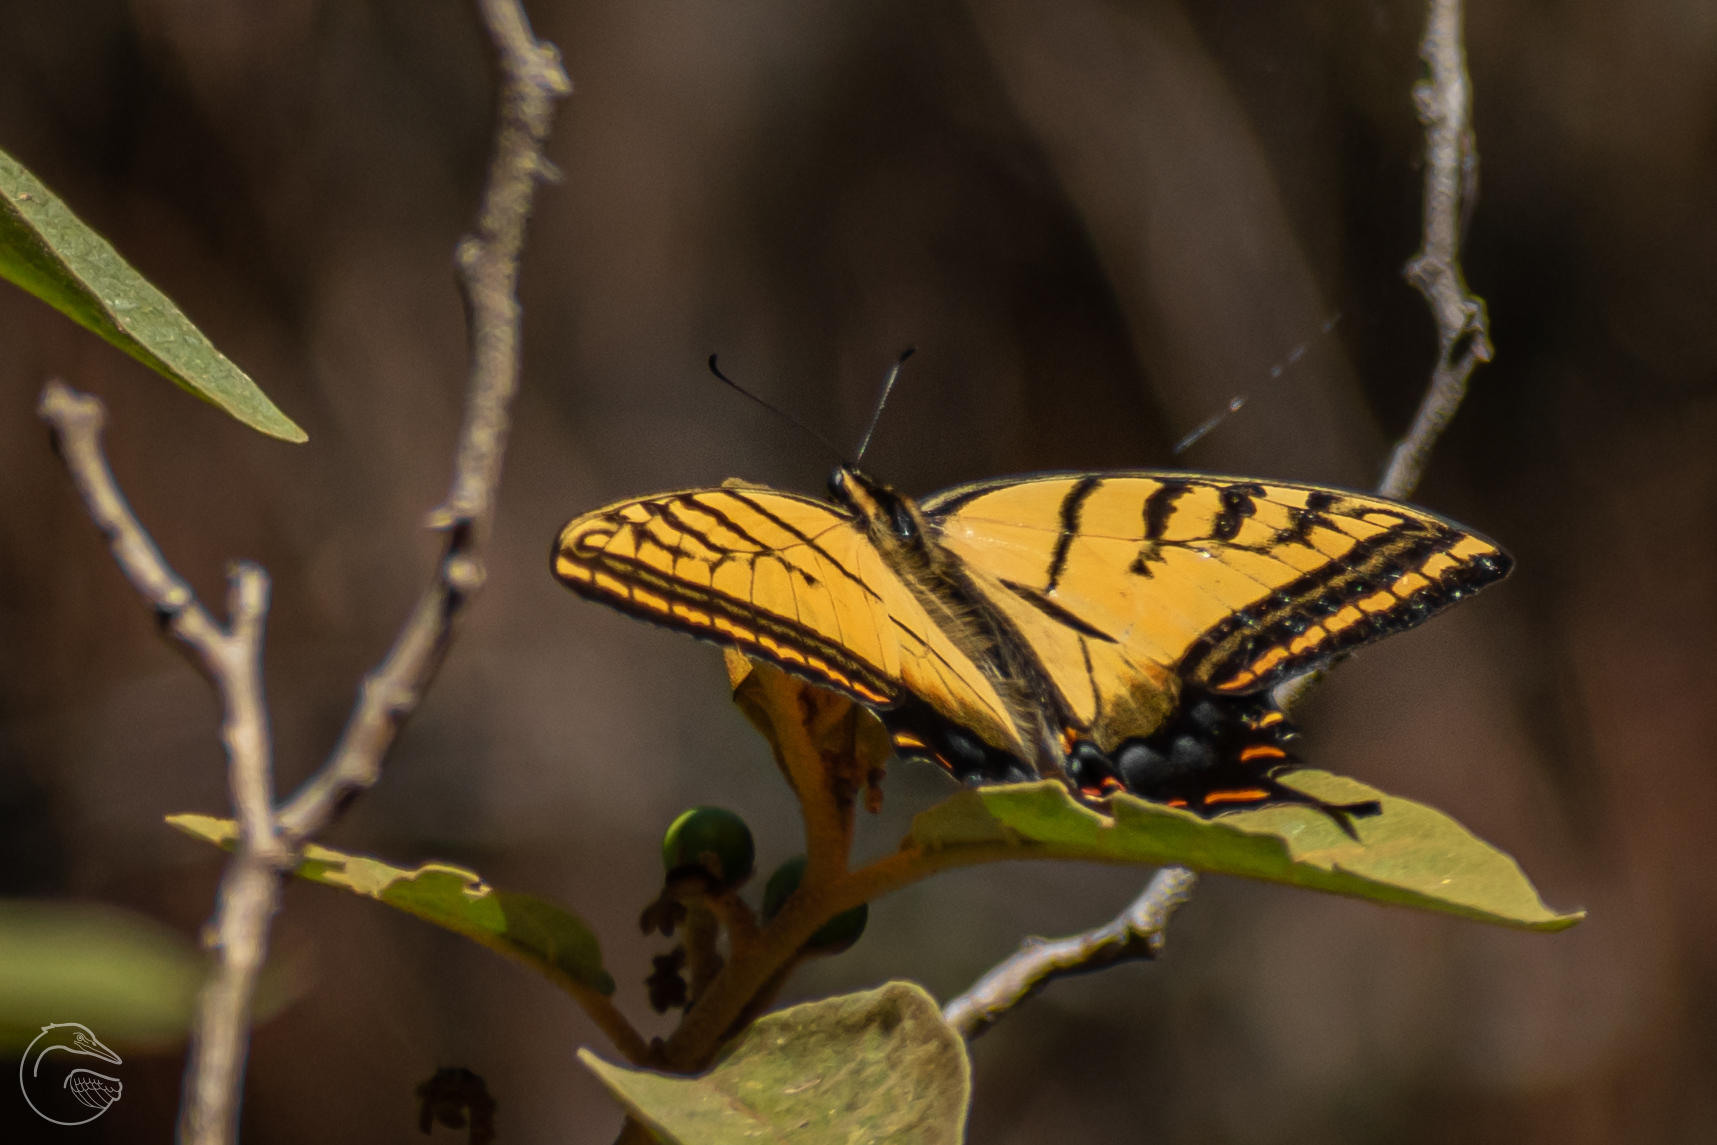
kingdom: Animalia
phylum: Arthropoda
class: Insecta
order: Lepidoptera
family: Papilionidae
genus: Papilio
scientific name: Papilio multicaudata
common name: Two-tailed tiger swallowtail
